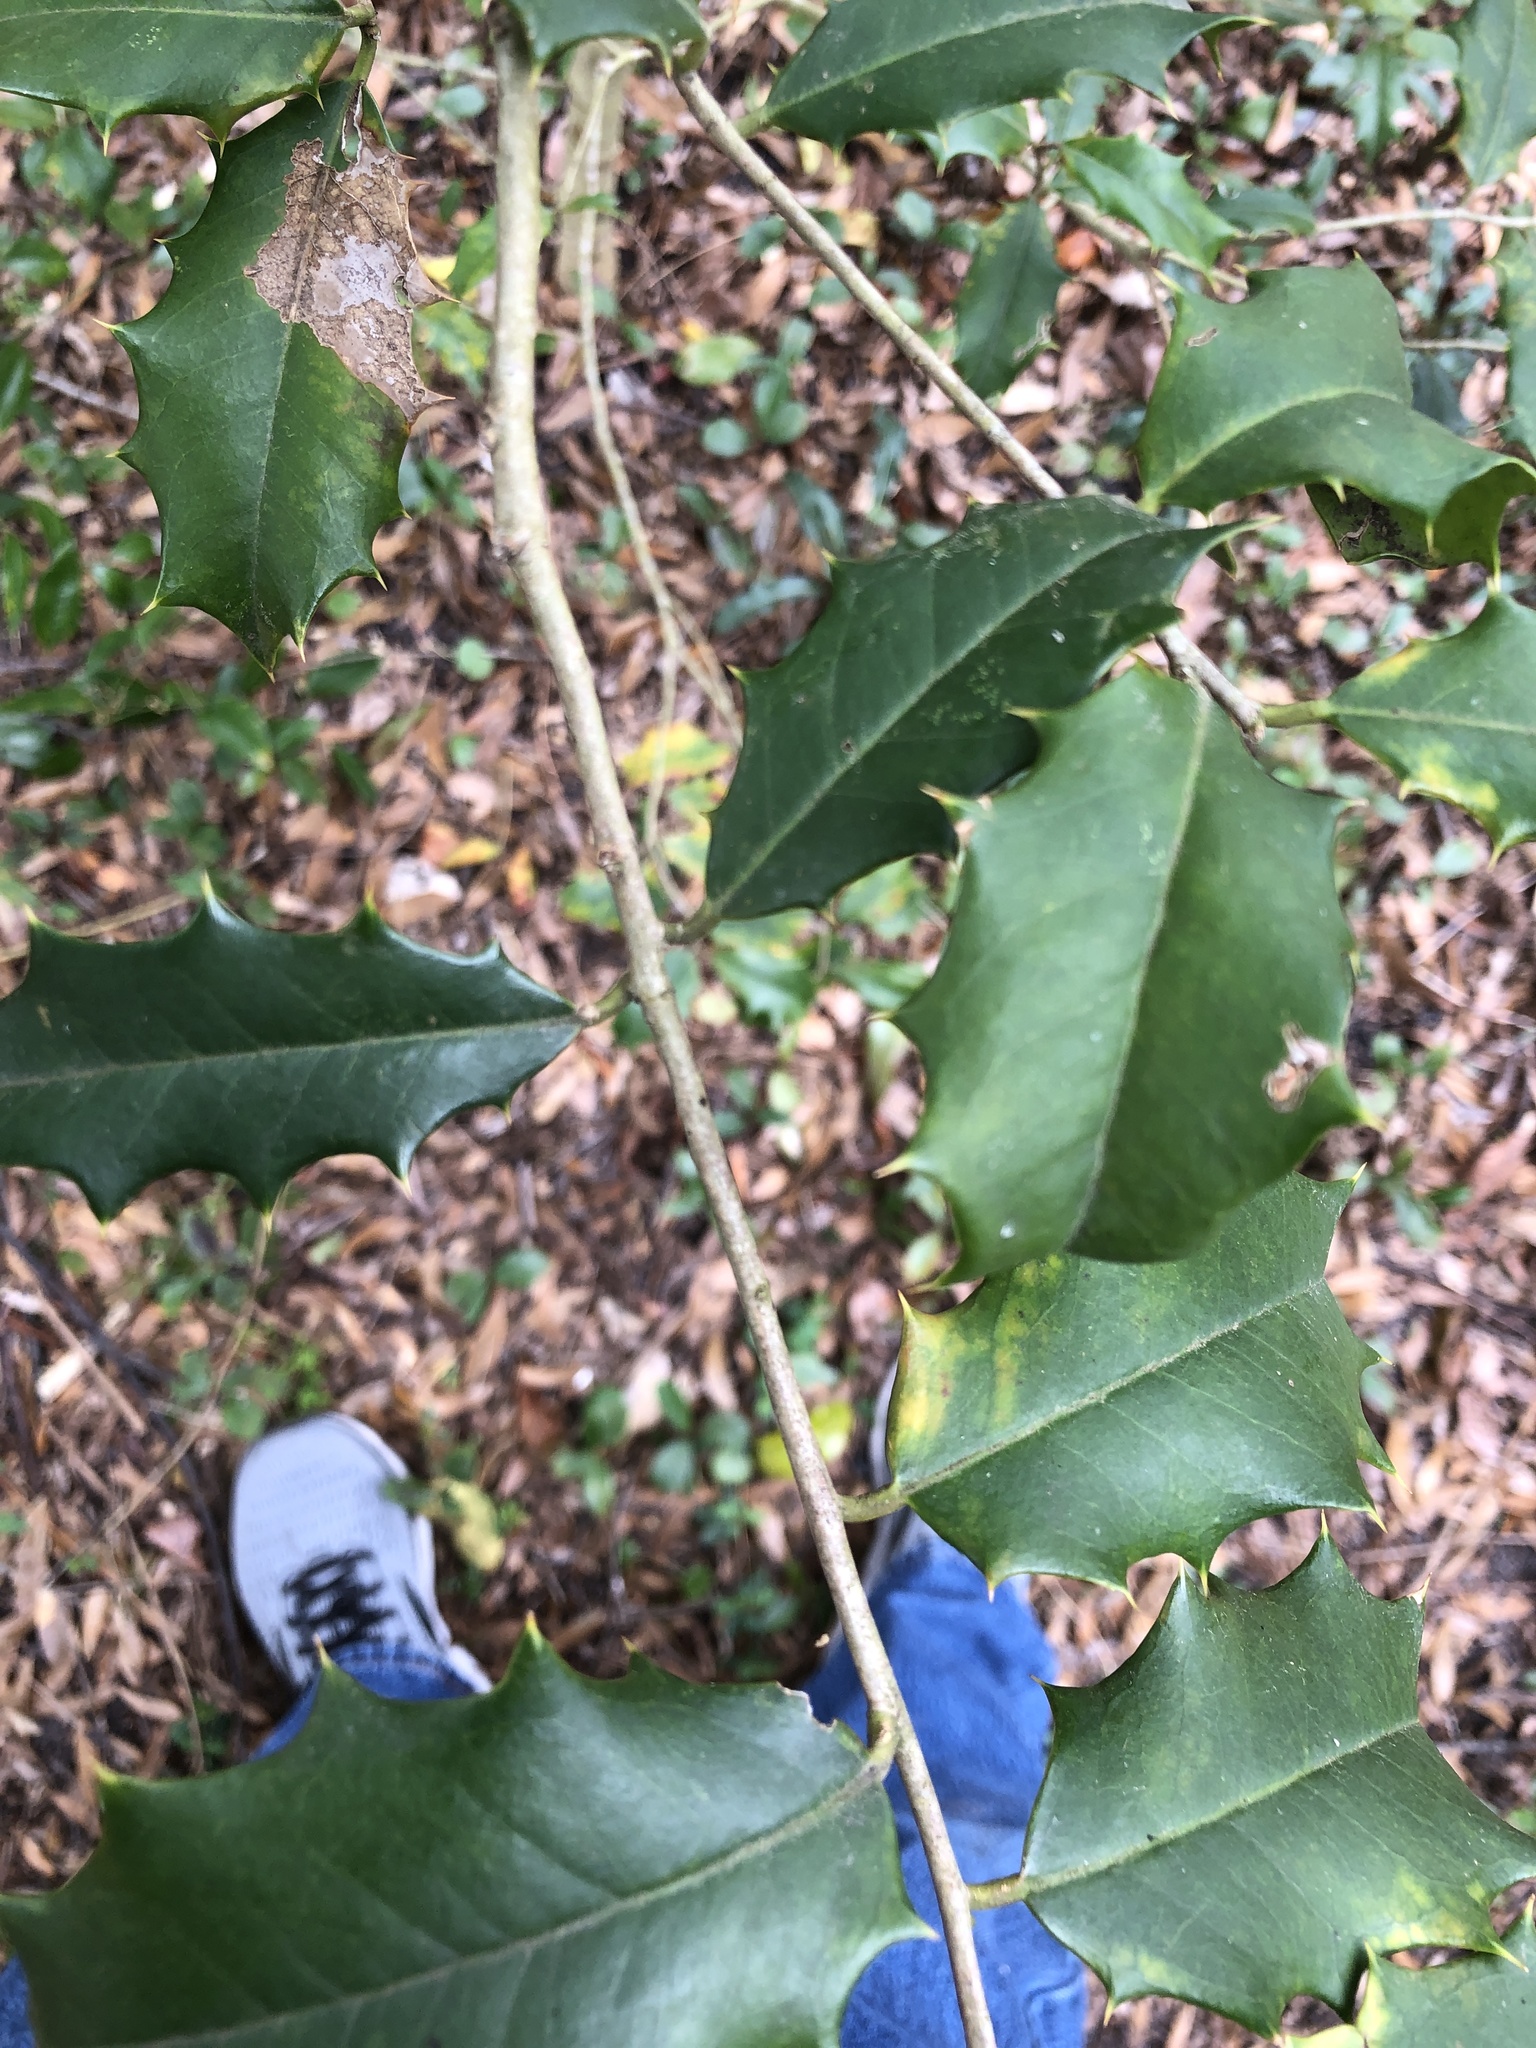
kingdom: Plantae
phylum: Tracheophyta
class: Magnoliopsida
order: Aquifoliales
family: Aquifoliaceae
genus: Ilex
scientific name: Ilex opaca
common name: American holly
